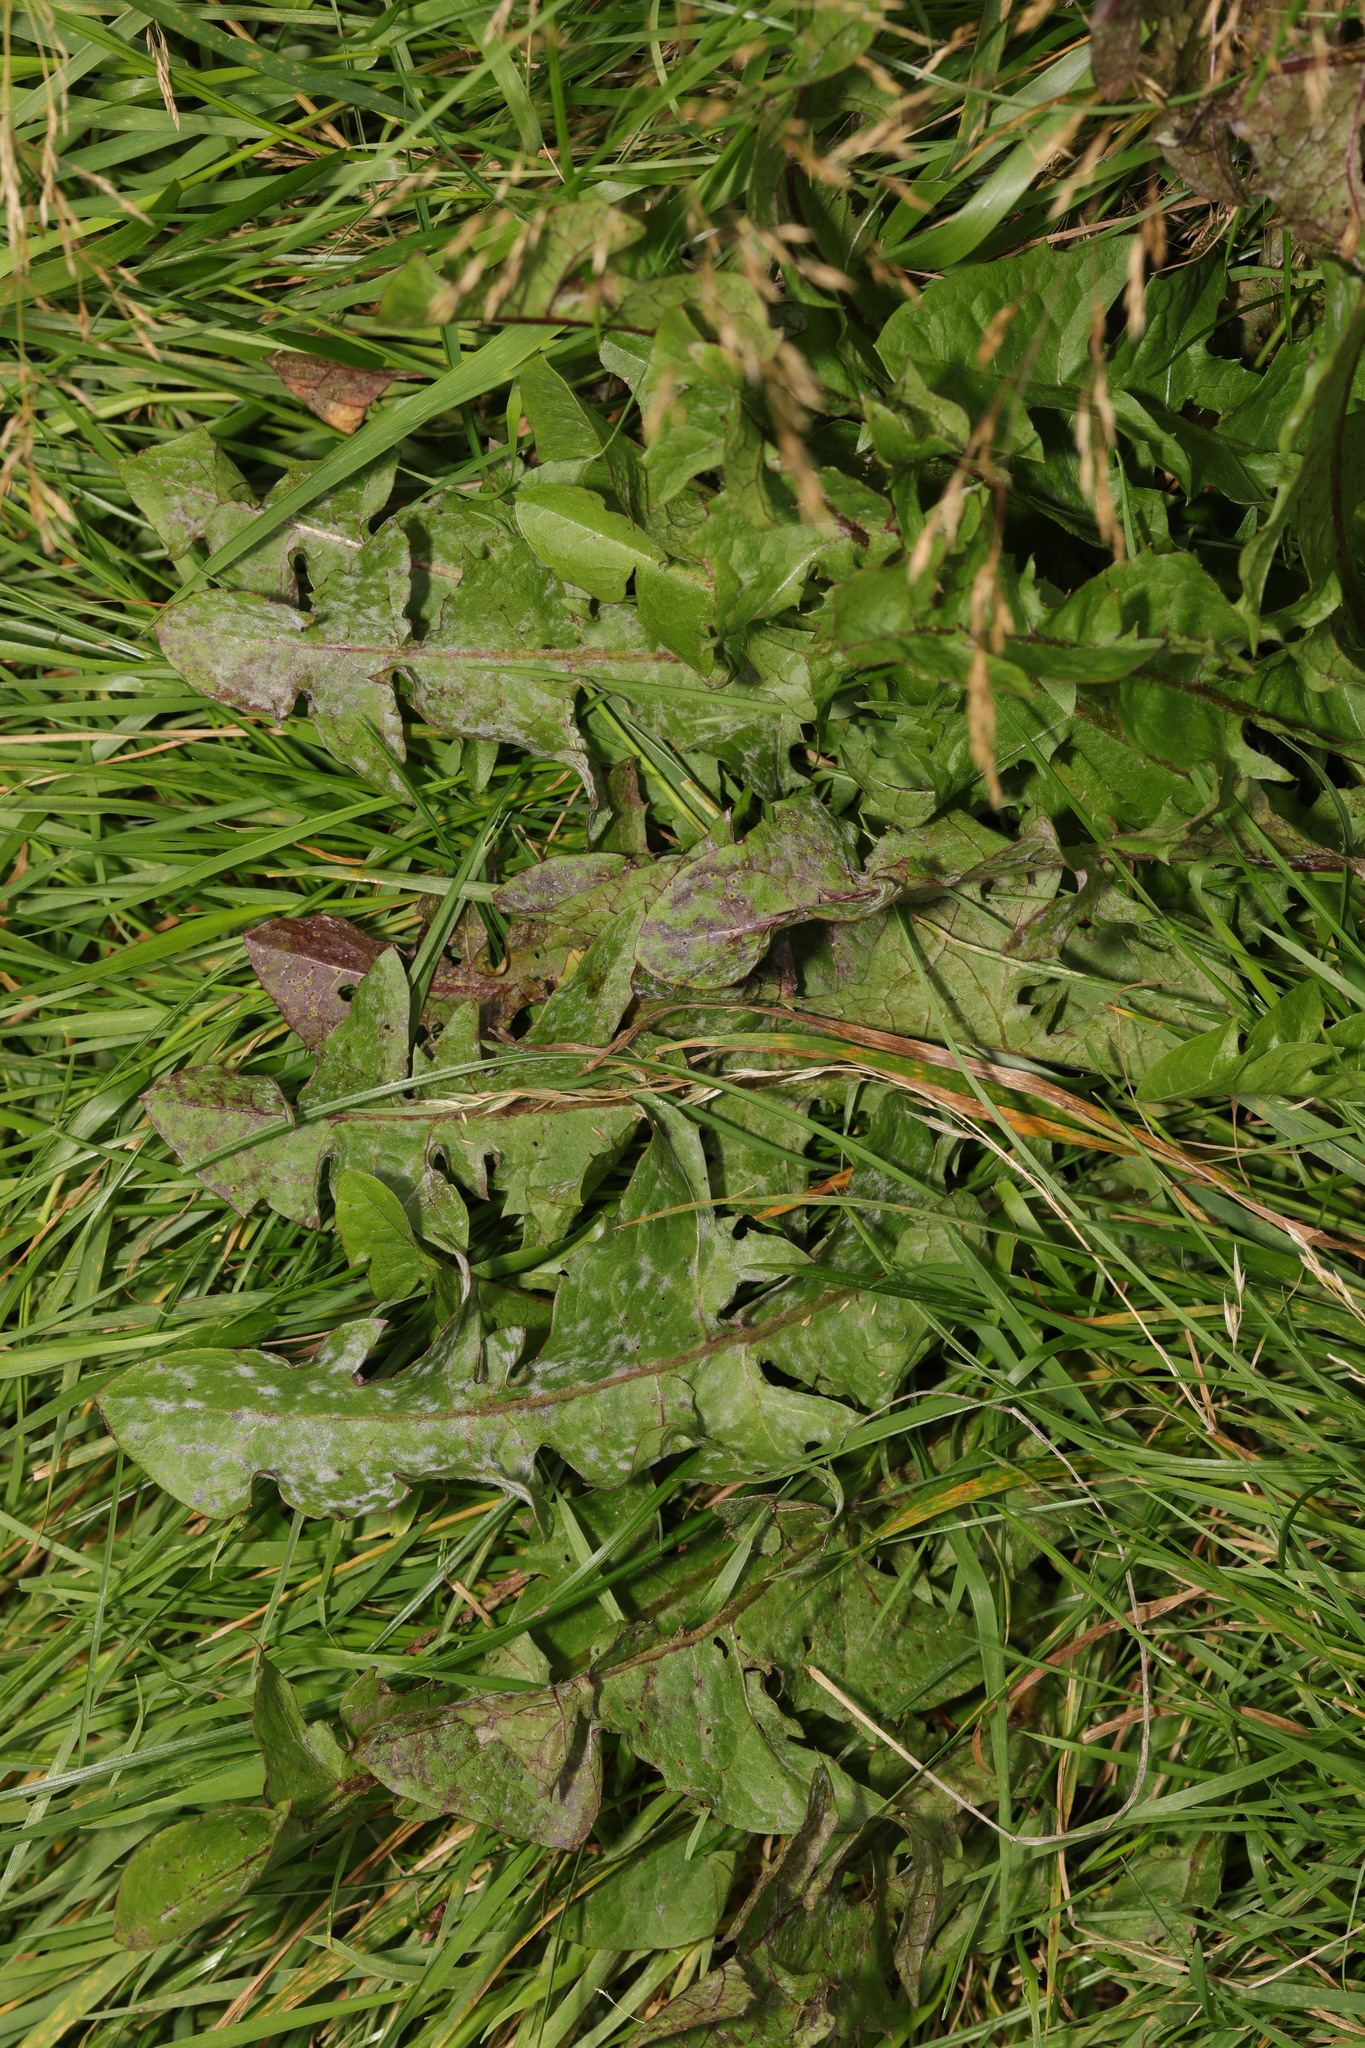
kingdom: Plantae
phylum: Tracheophyta
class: Magnoliopsida
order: Asterales
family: Asteraceae
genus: Taraxacum
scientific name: Taraxacum officinale
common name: Common dandelion
